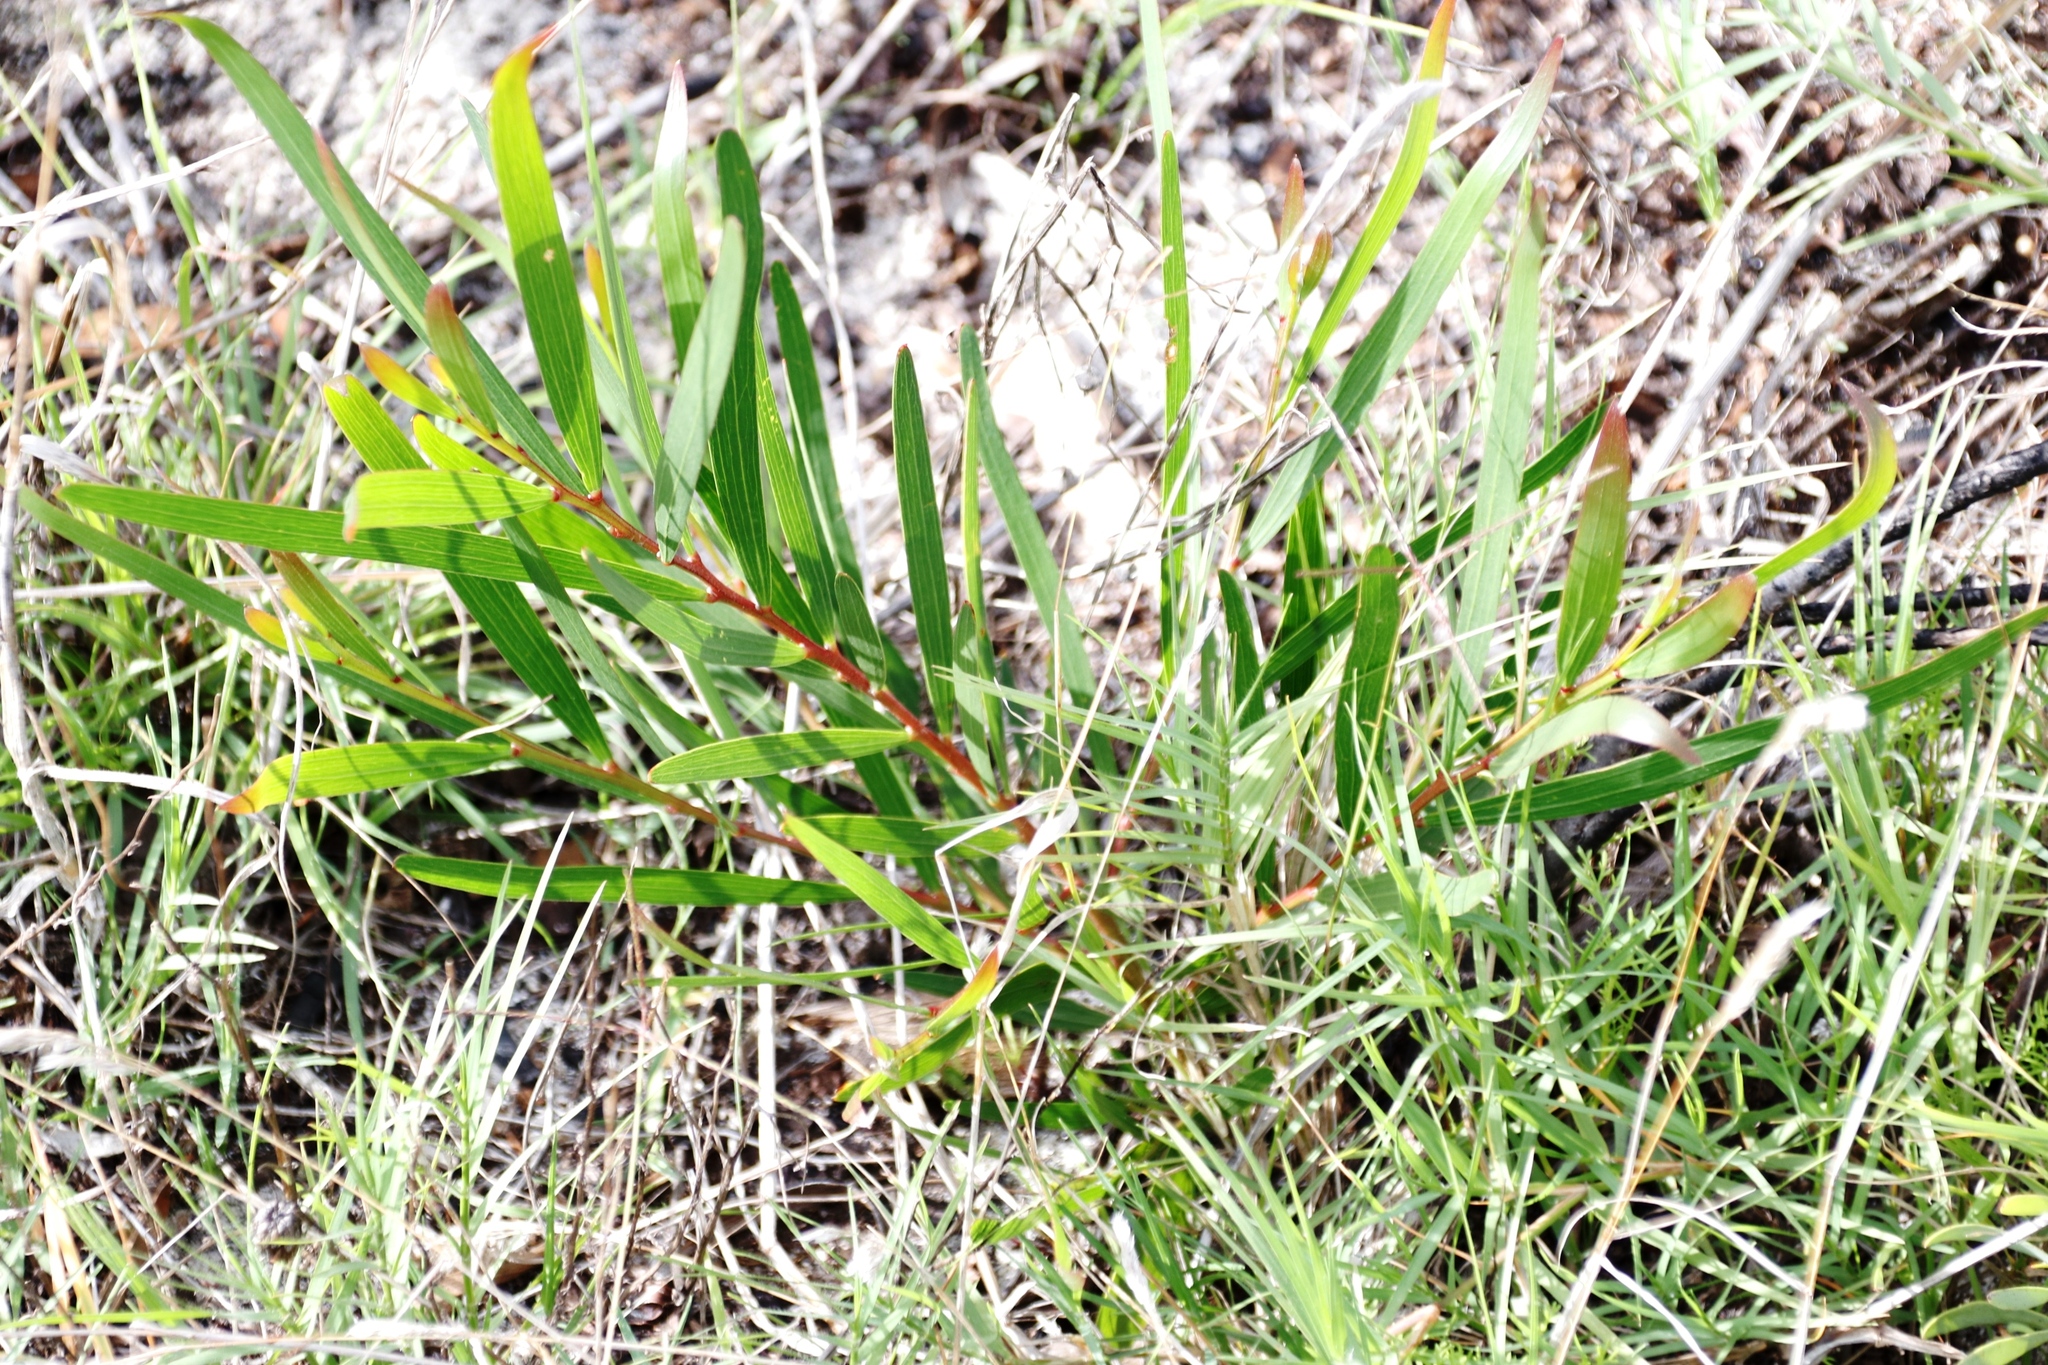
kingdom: Plantae
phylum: Tracheophyta
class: Magnoliopsida
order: Fabales
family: Fabaceae
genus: Acacia
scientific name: Acacia longifolia
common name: Sydney golden wattle
